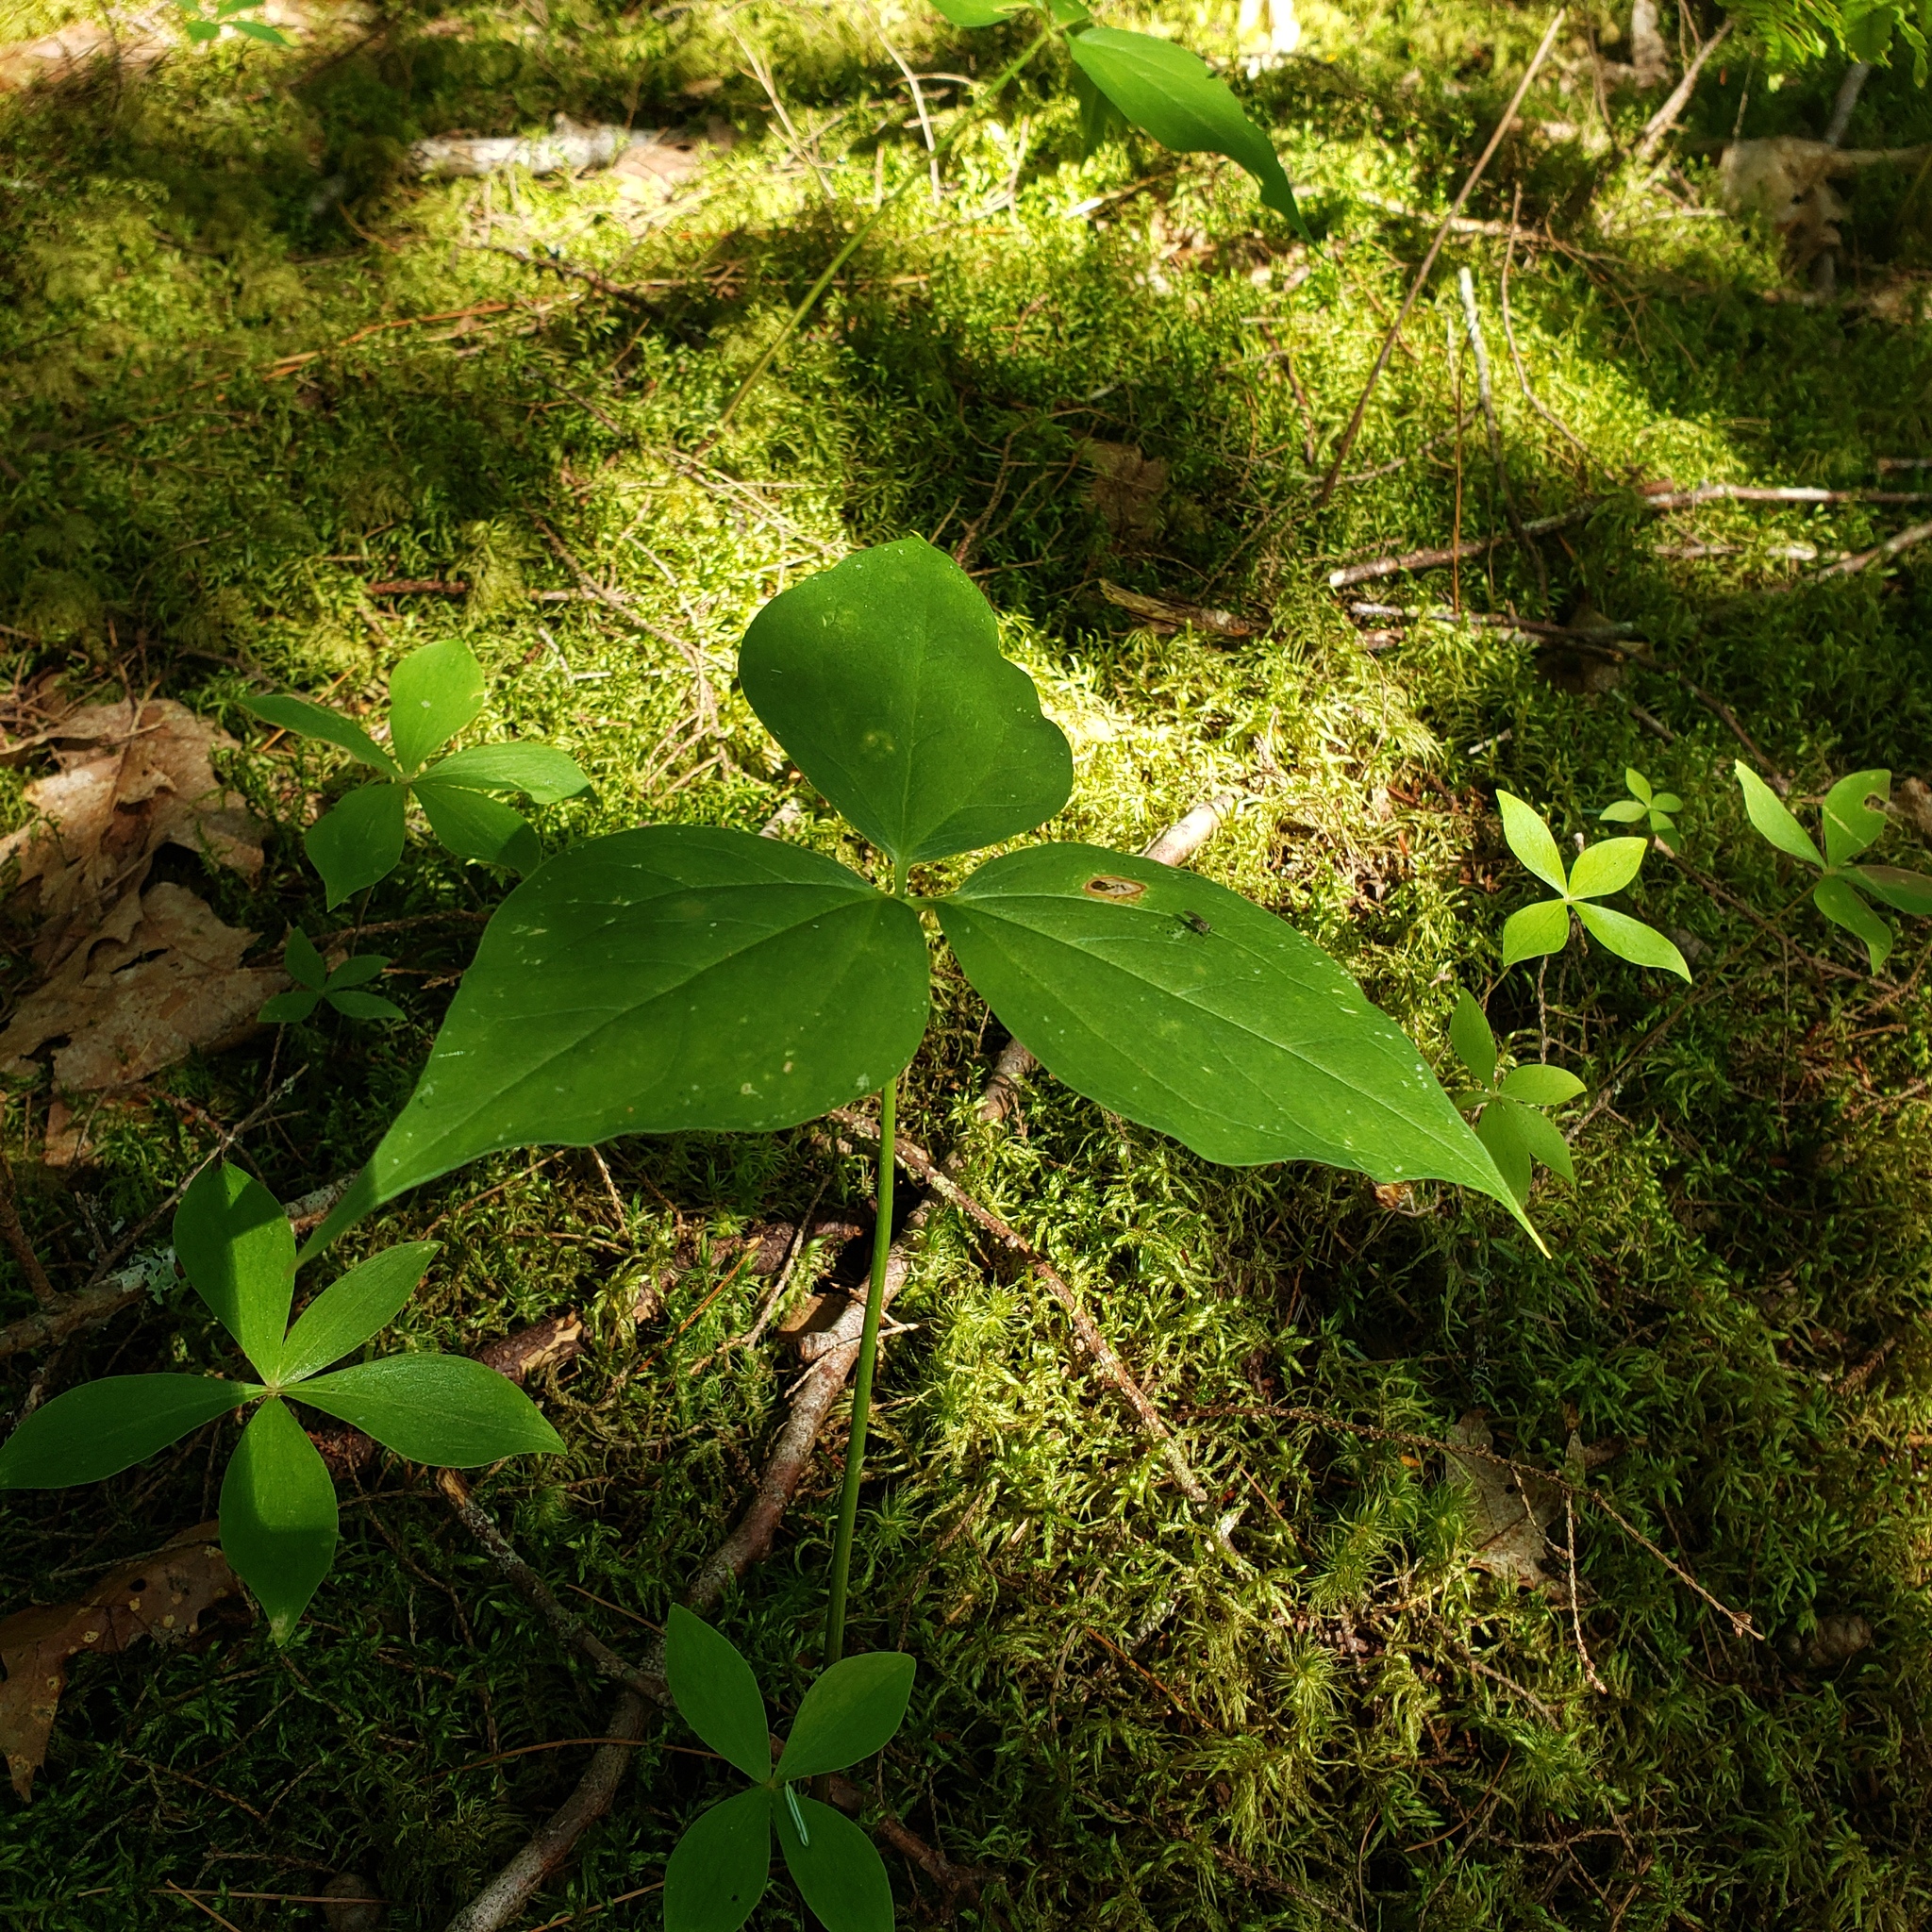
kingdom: Plantae
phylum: Tracheophyta
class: Liliopsida
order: Liliales
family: Melanthiaceae
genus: Trillium
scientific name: Trillium undulatum
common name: Paint trillium
